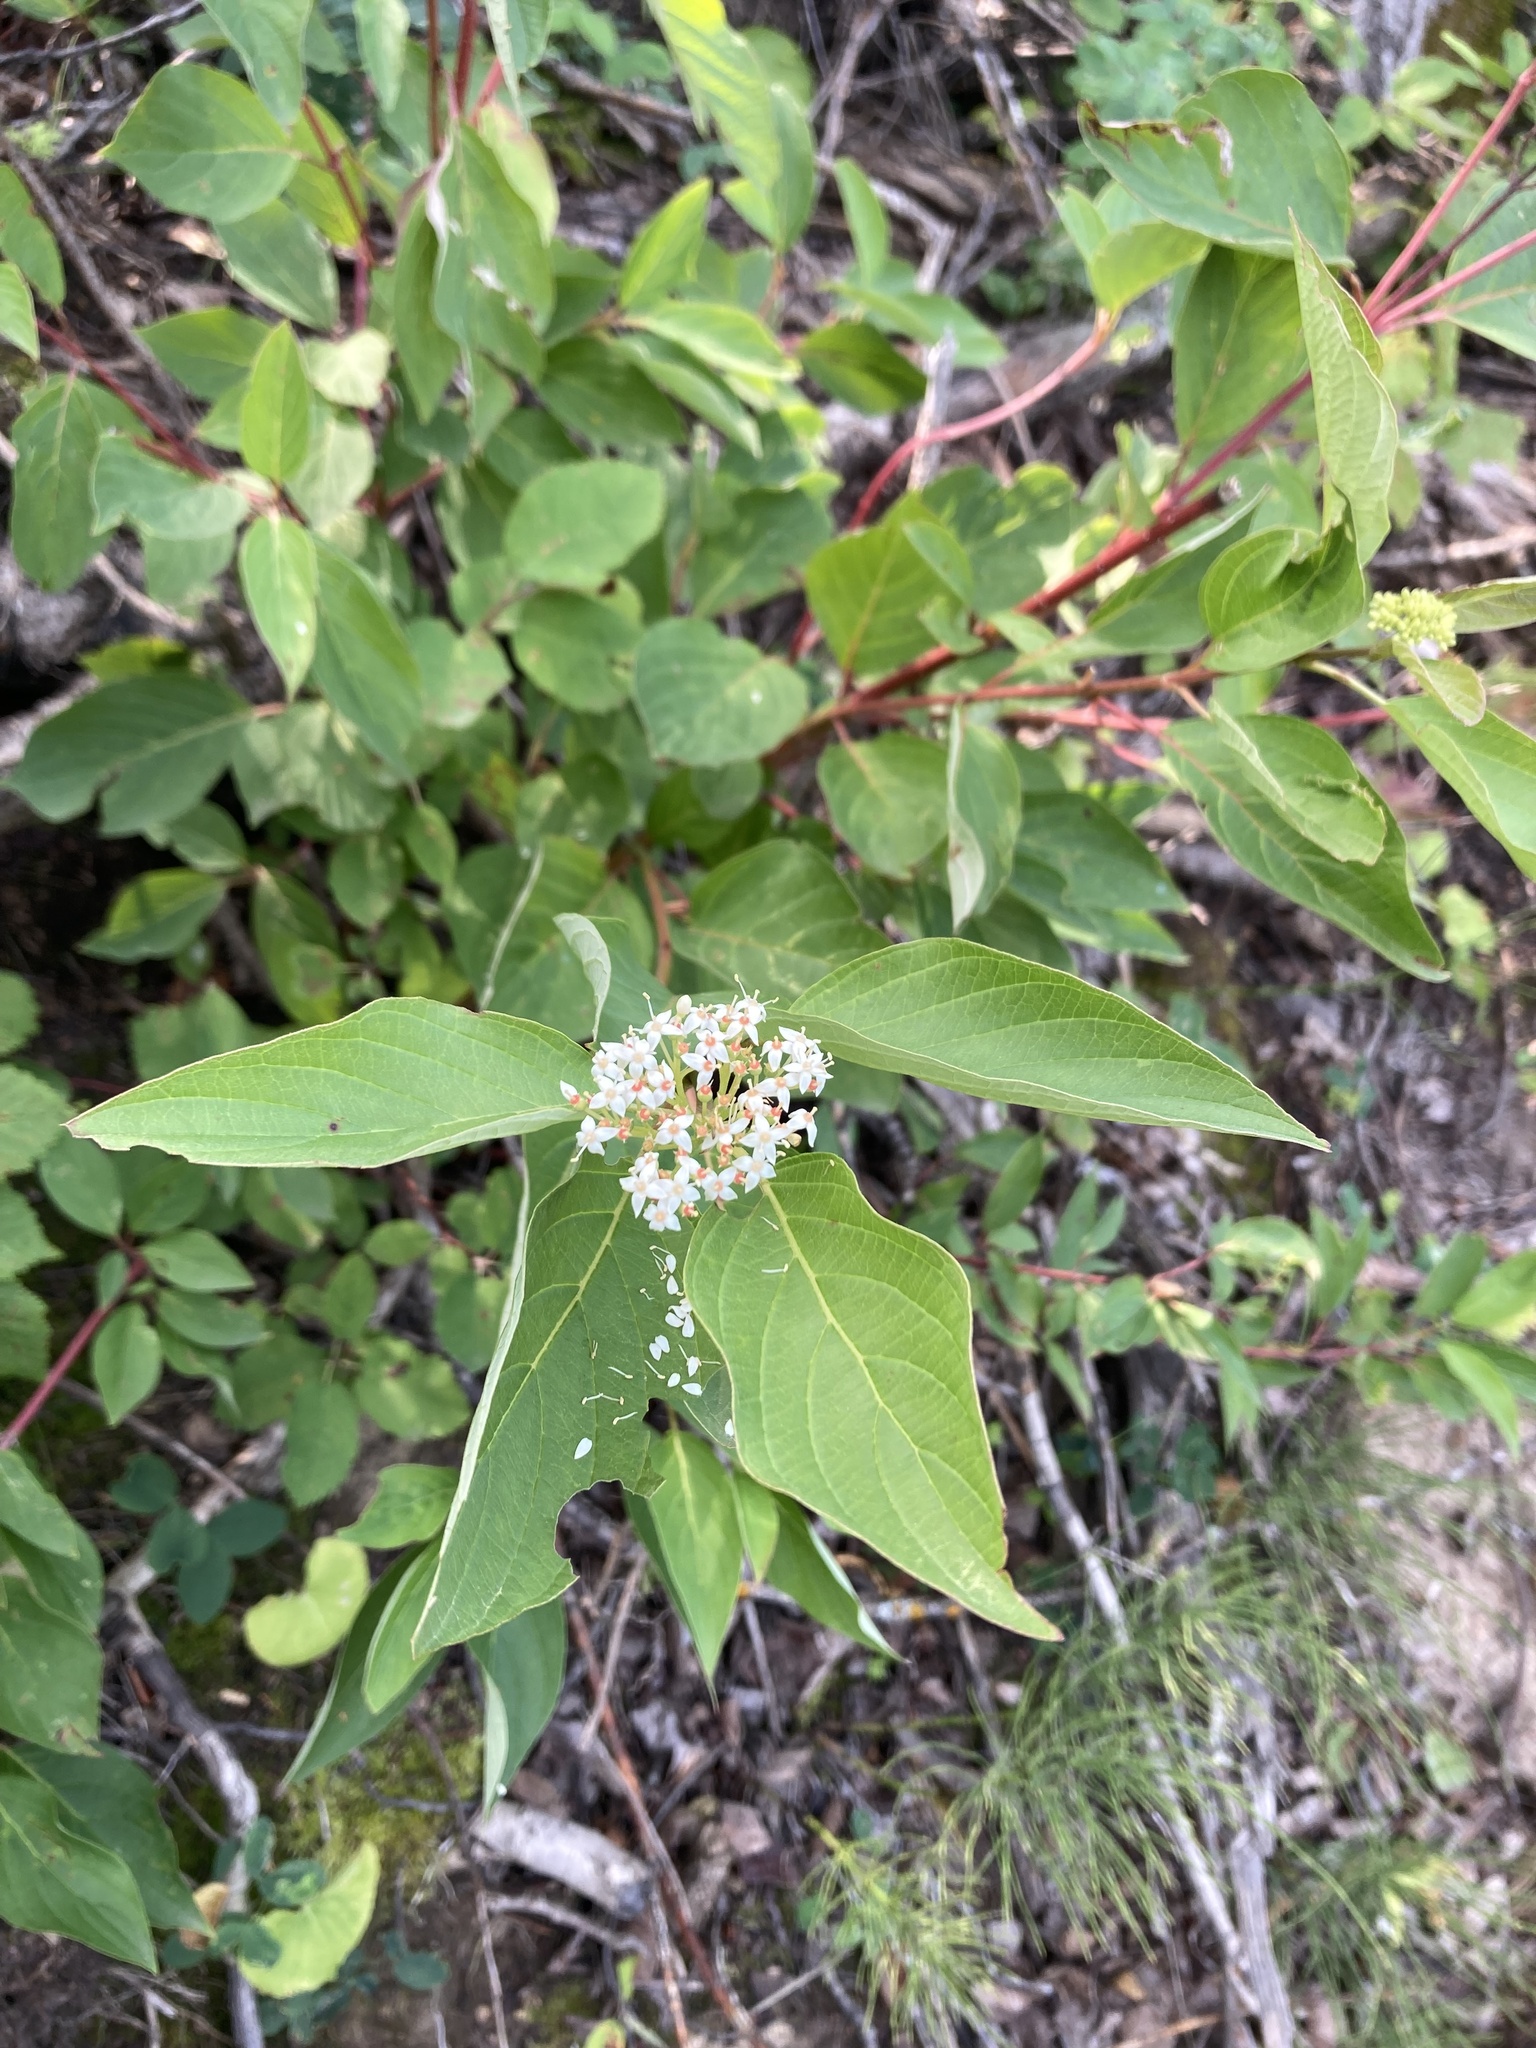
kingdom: Plantae
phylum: Tracheophyta
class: Magnoliopsida
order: Cornales
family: Cornaceae
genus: Cornus
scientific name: Cornus sericea
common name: Red-osier dogwood
